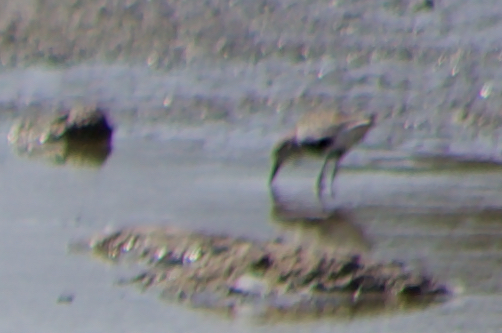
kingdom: Animalia
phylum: Chordata
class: Aves
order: Charadriiformes
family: Scolopacidae
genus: Calidris
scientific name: Calidris alpina
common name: Dunlin
